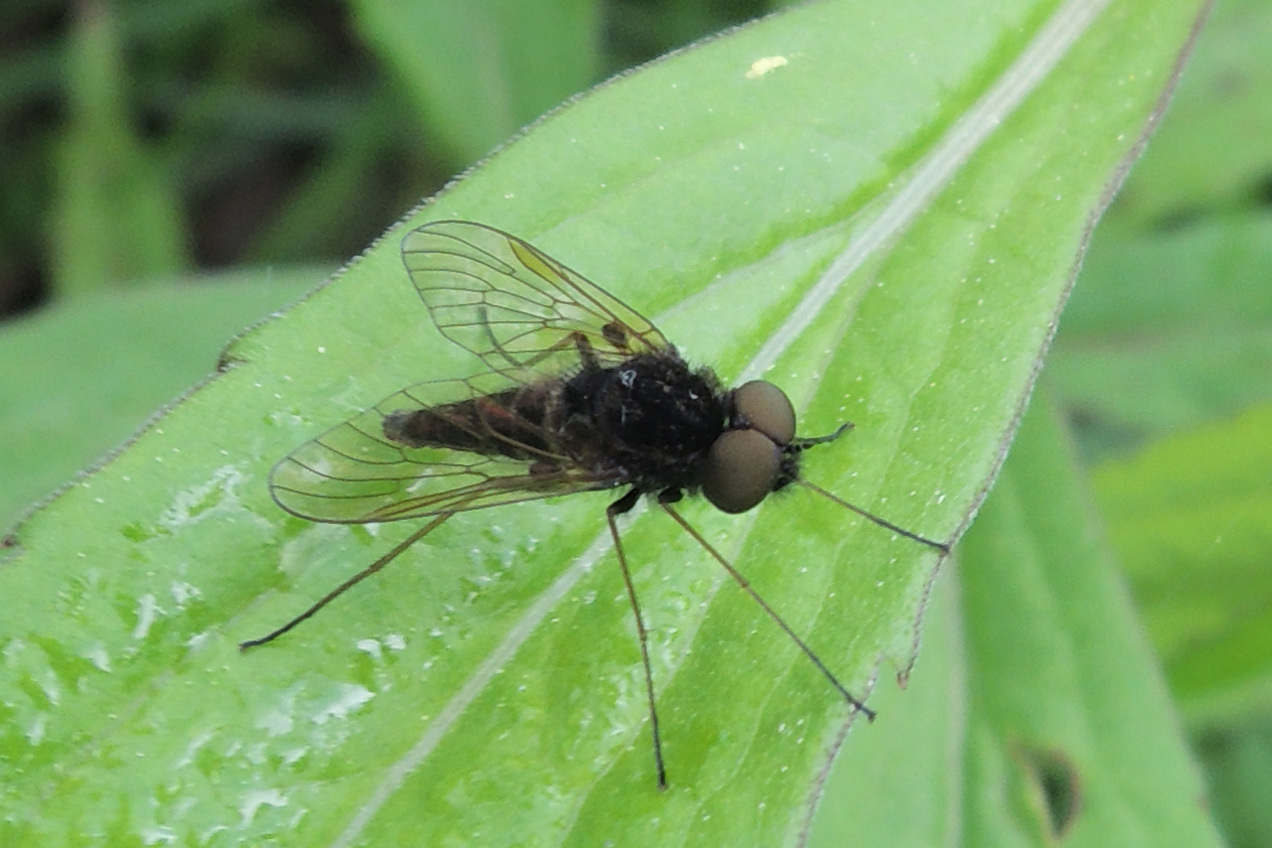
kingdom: Animalia
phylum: Arthropoda
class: Insecta
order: Diptera
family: Rhagionidae
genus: Chrysopilus
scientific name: Chrysopilus proximus
